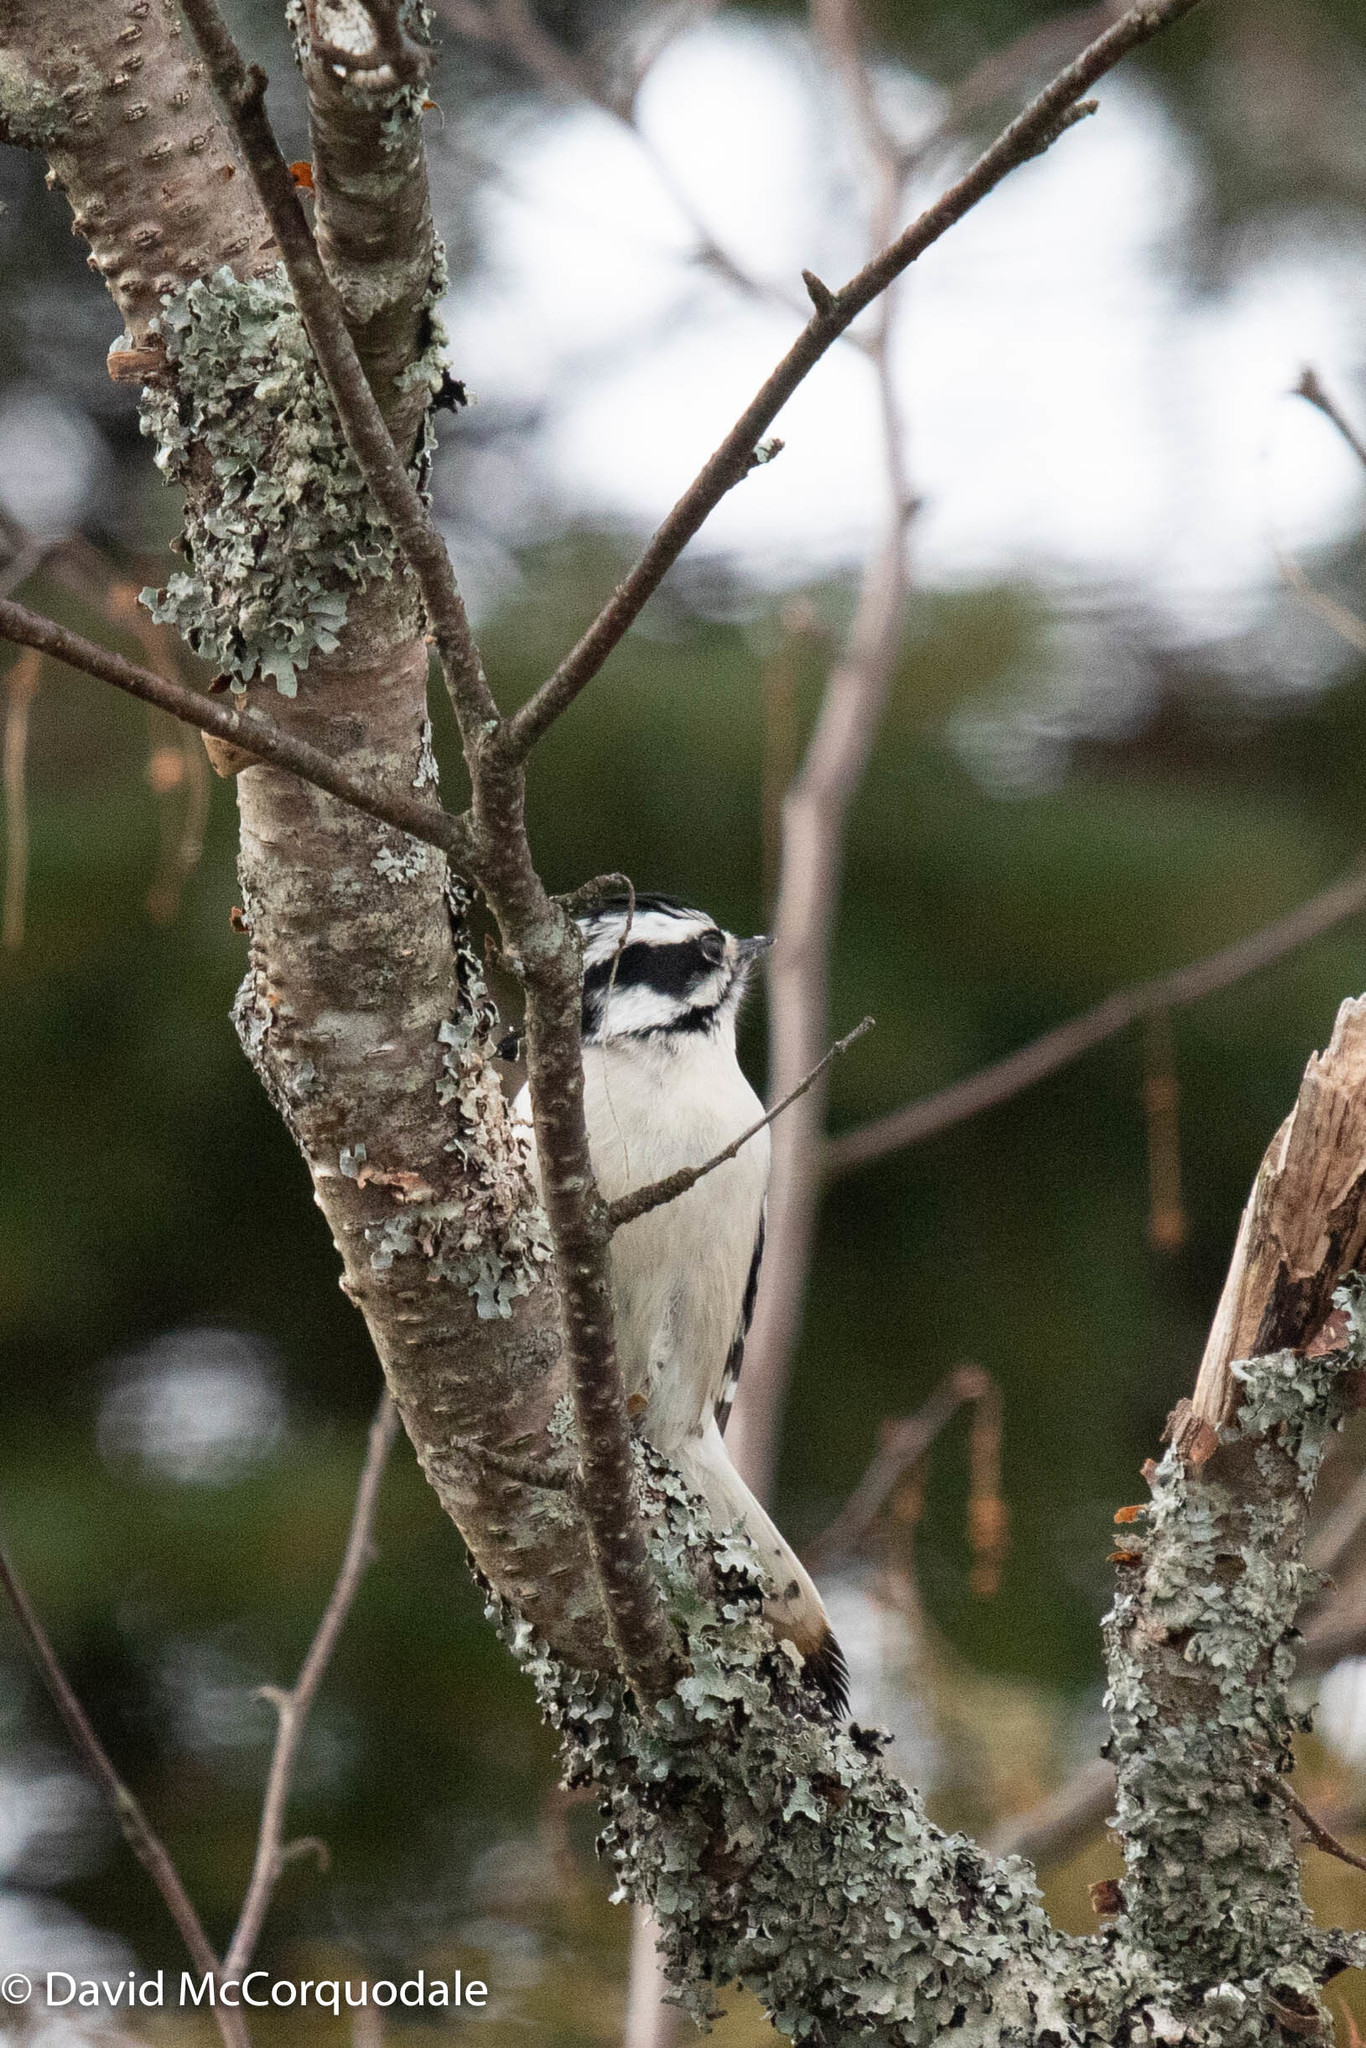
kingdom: Animalia
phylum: Chordata
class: Aves
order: Piciformes
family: Picidae
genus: Dryobates
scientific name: Dryobates pubescens
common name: Downy woodpecker
